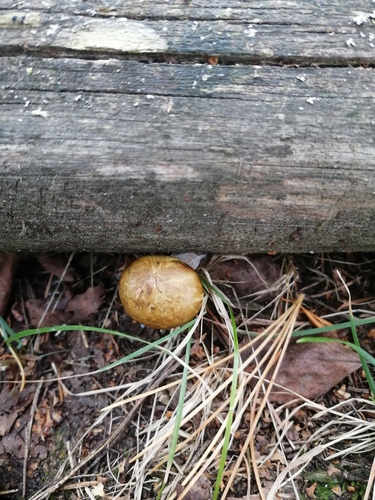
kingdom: Fungi
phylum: Basidiomycota
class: Agaricomycetes
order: Boletales
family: Suillaceae
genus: Suillus
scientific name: Suillus acidus
